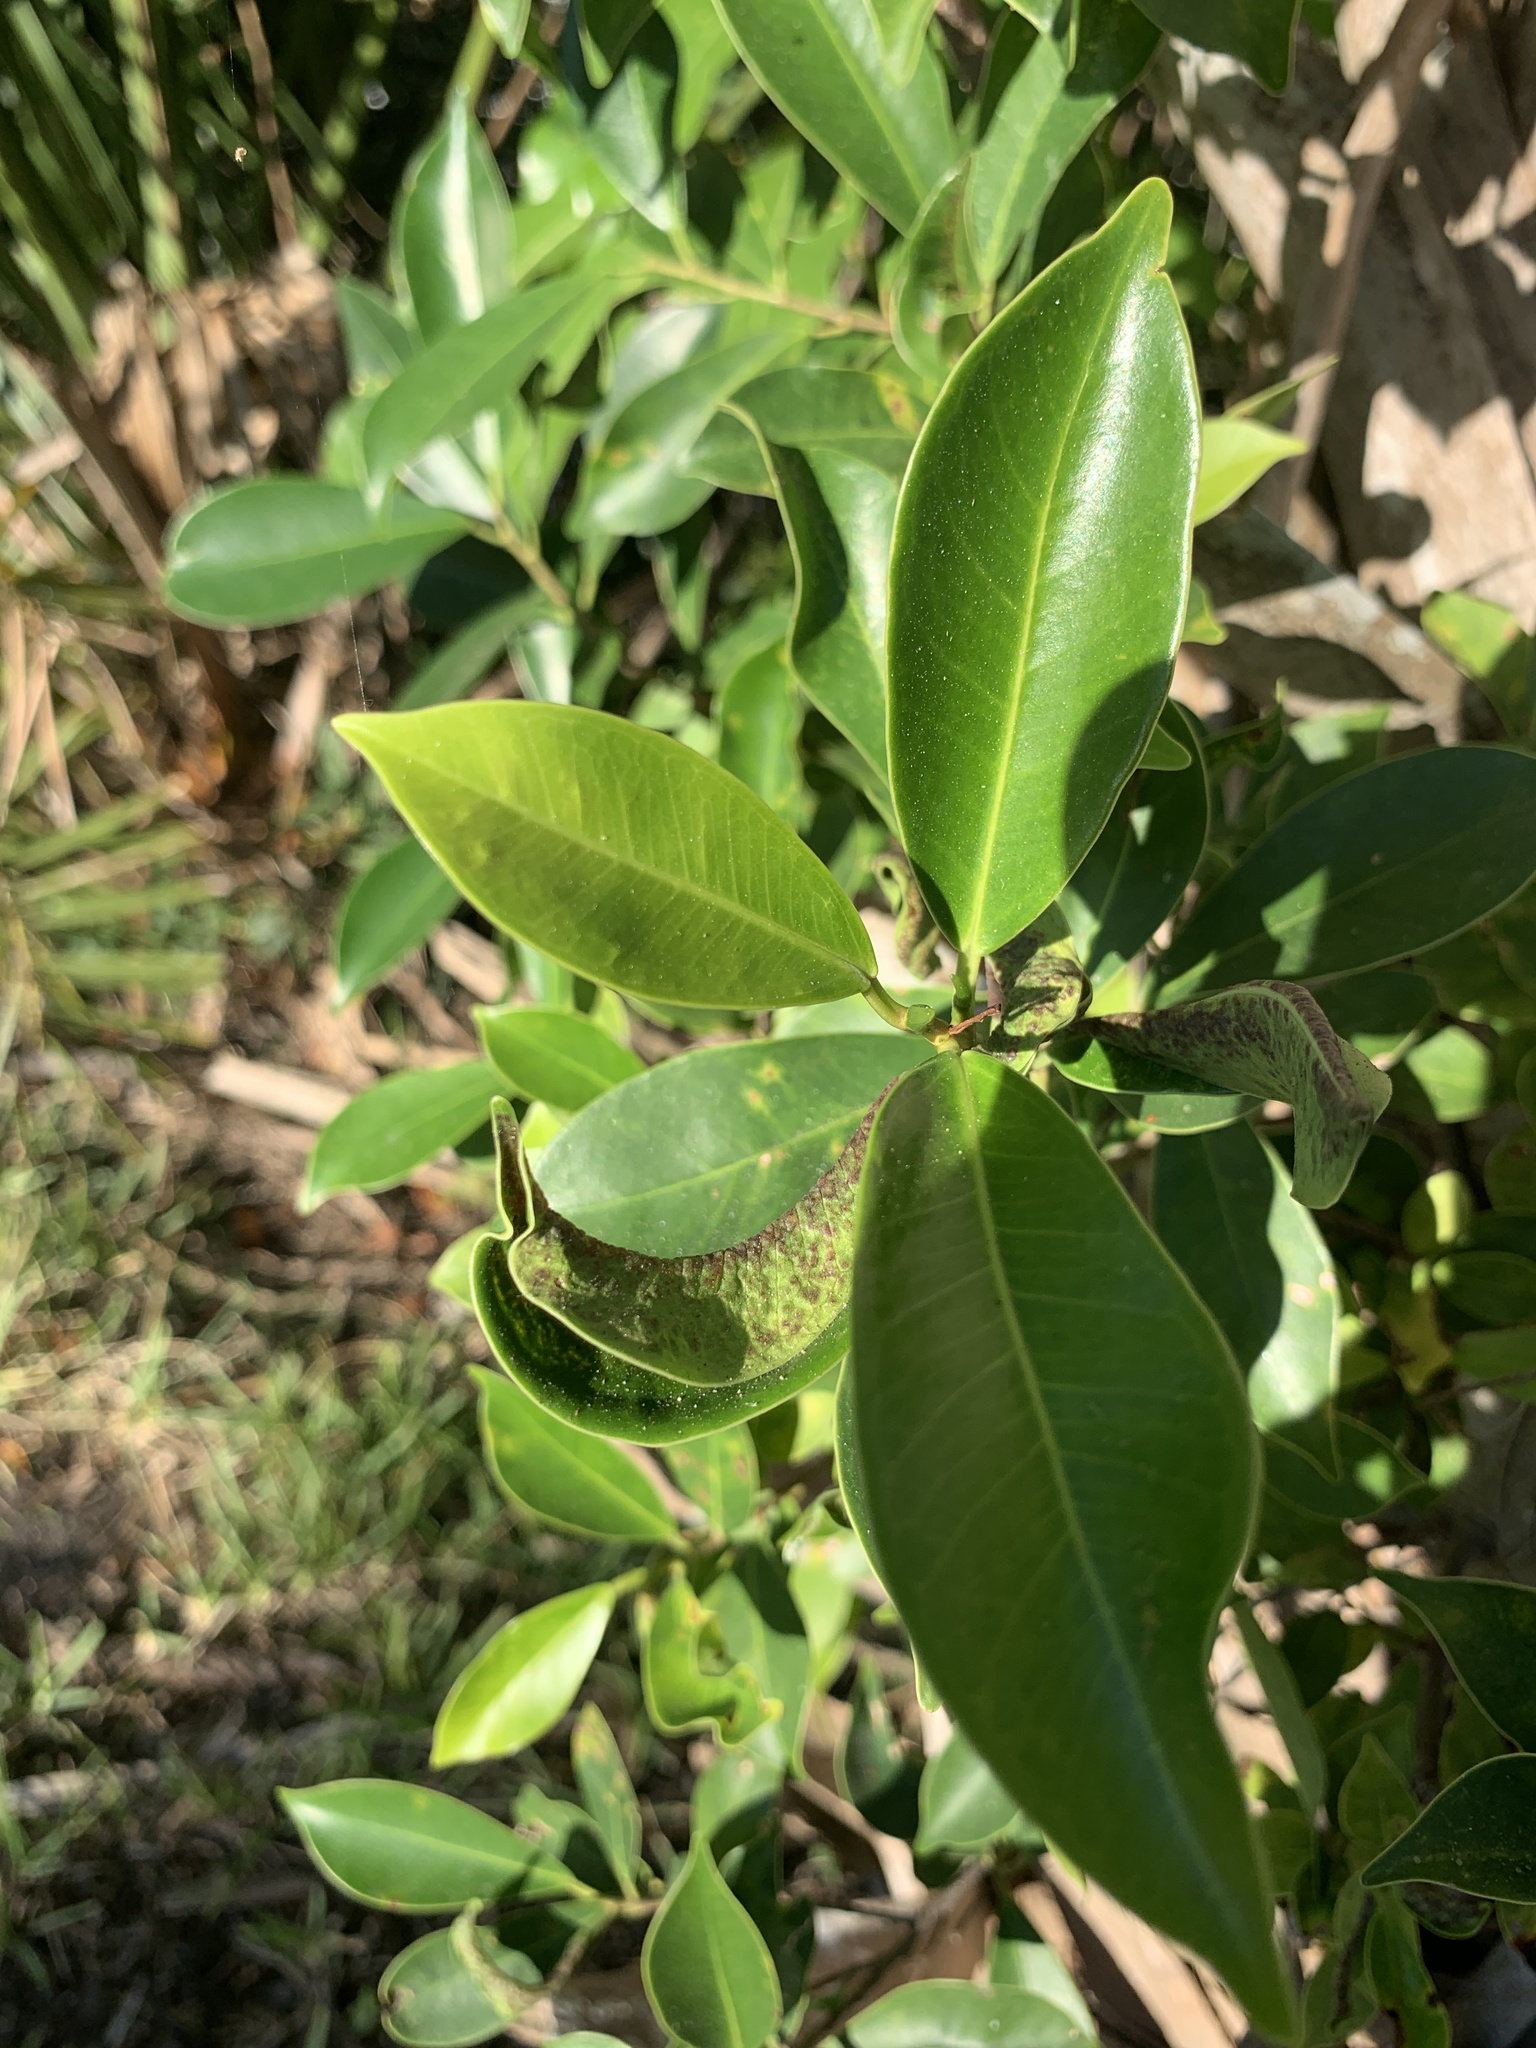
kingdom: Plantae
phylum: Tracheophyta
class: Magnoliopsida
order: Rosales
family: Moraceae
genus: Ficus
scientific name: Ficus microcarpa
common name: Chinese banyan
